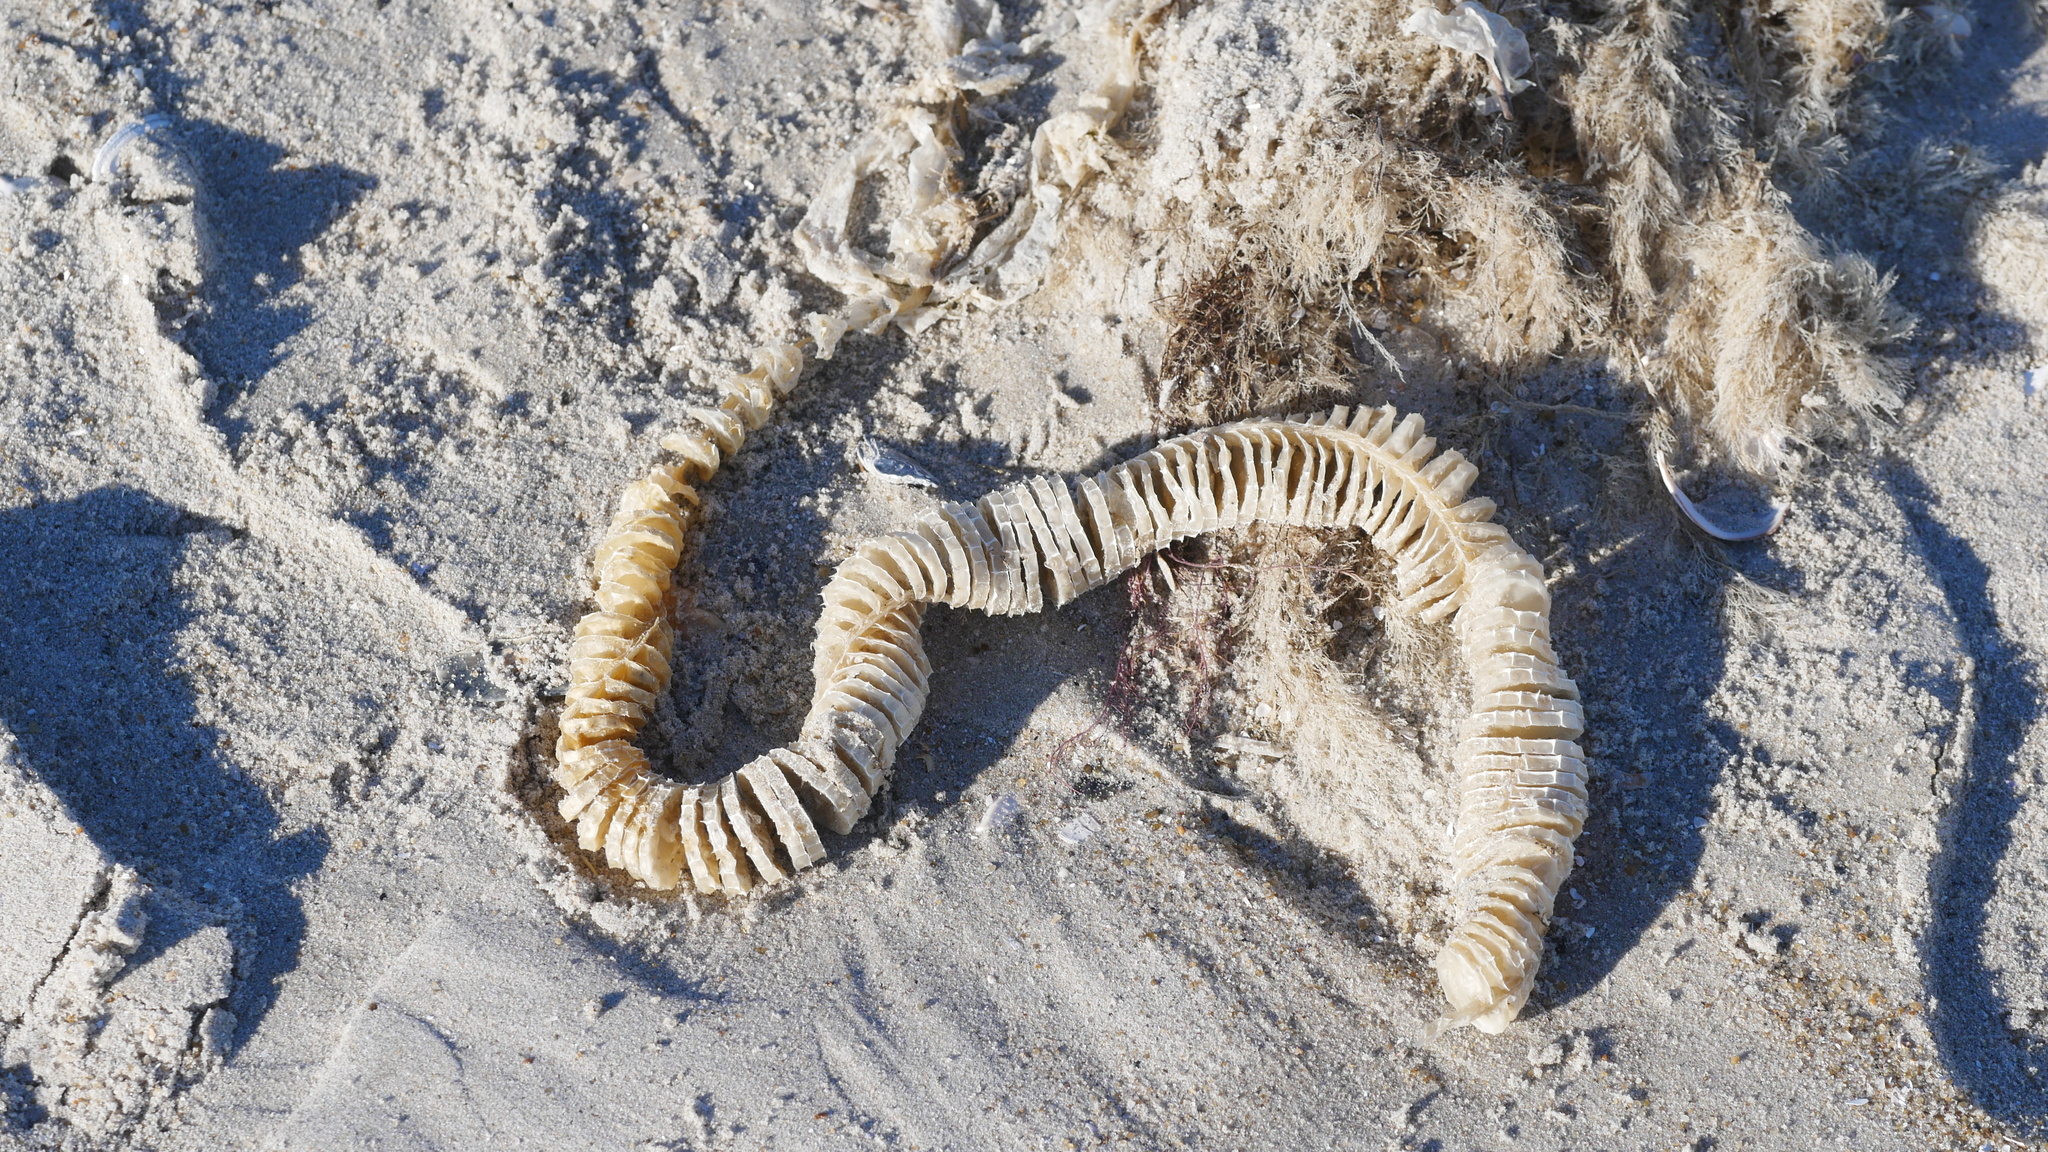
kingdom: Animalia
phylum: Mollusca
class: Gastropoda
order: Neogastropoda
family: Busyconidae
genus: Busycon
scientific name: Busycon carica
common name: Knobbed whelk
